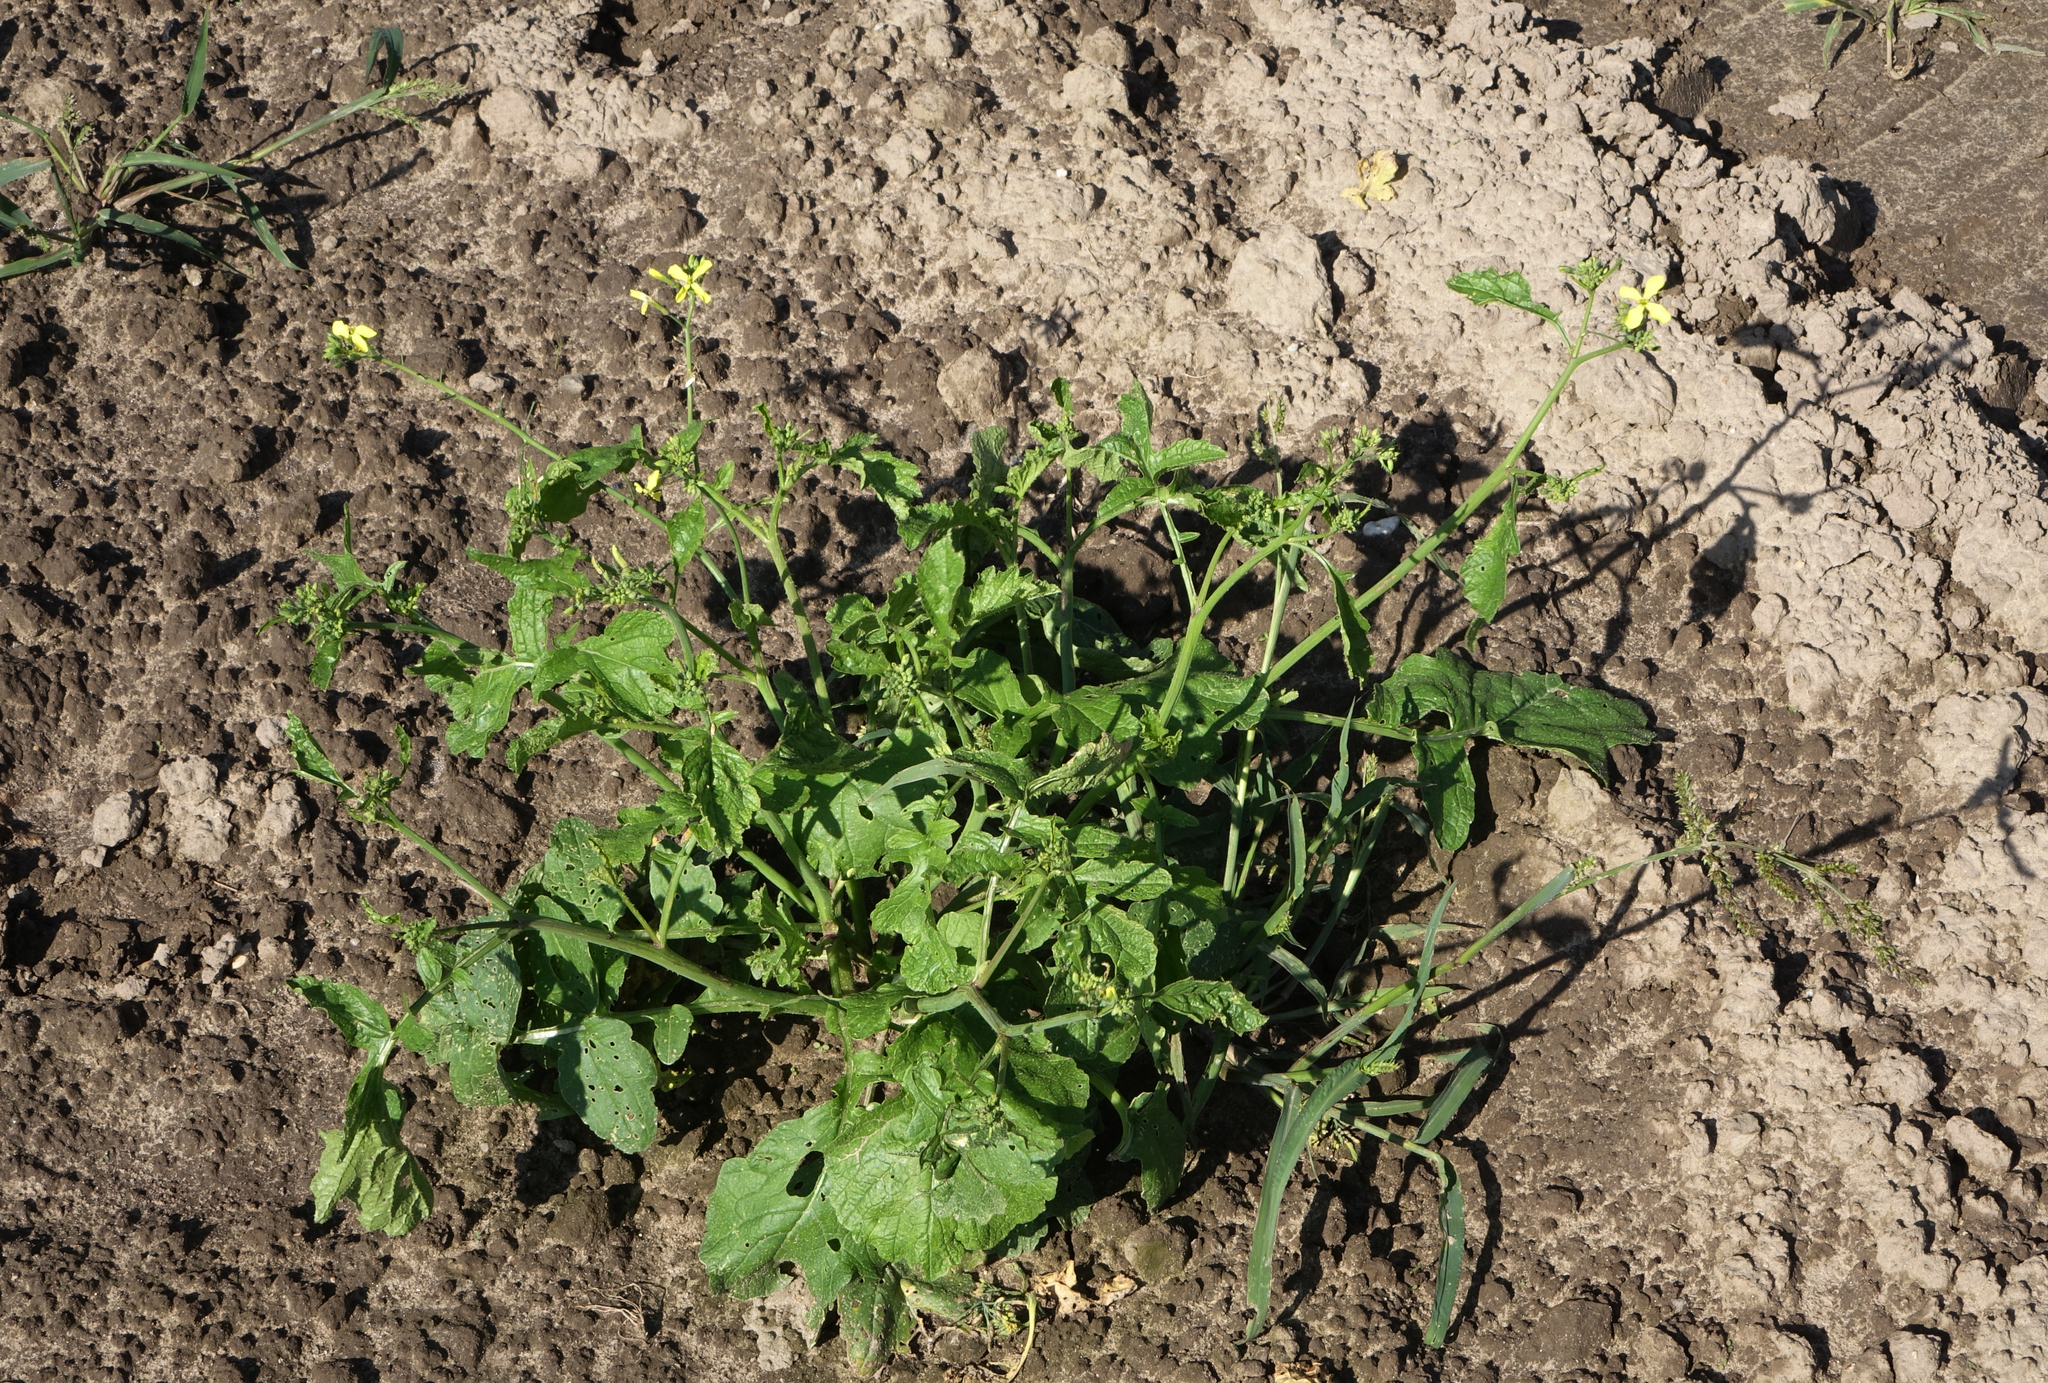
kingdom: Plantae
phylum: Tracheophyta
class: Magnoliopsida
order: Brassicales
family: Brassicaceae
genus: Raphanus
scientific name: Raphanus raphanistrum
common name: Wild radish
